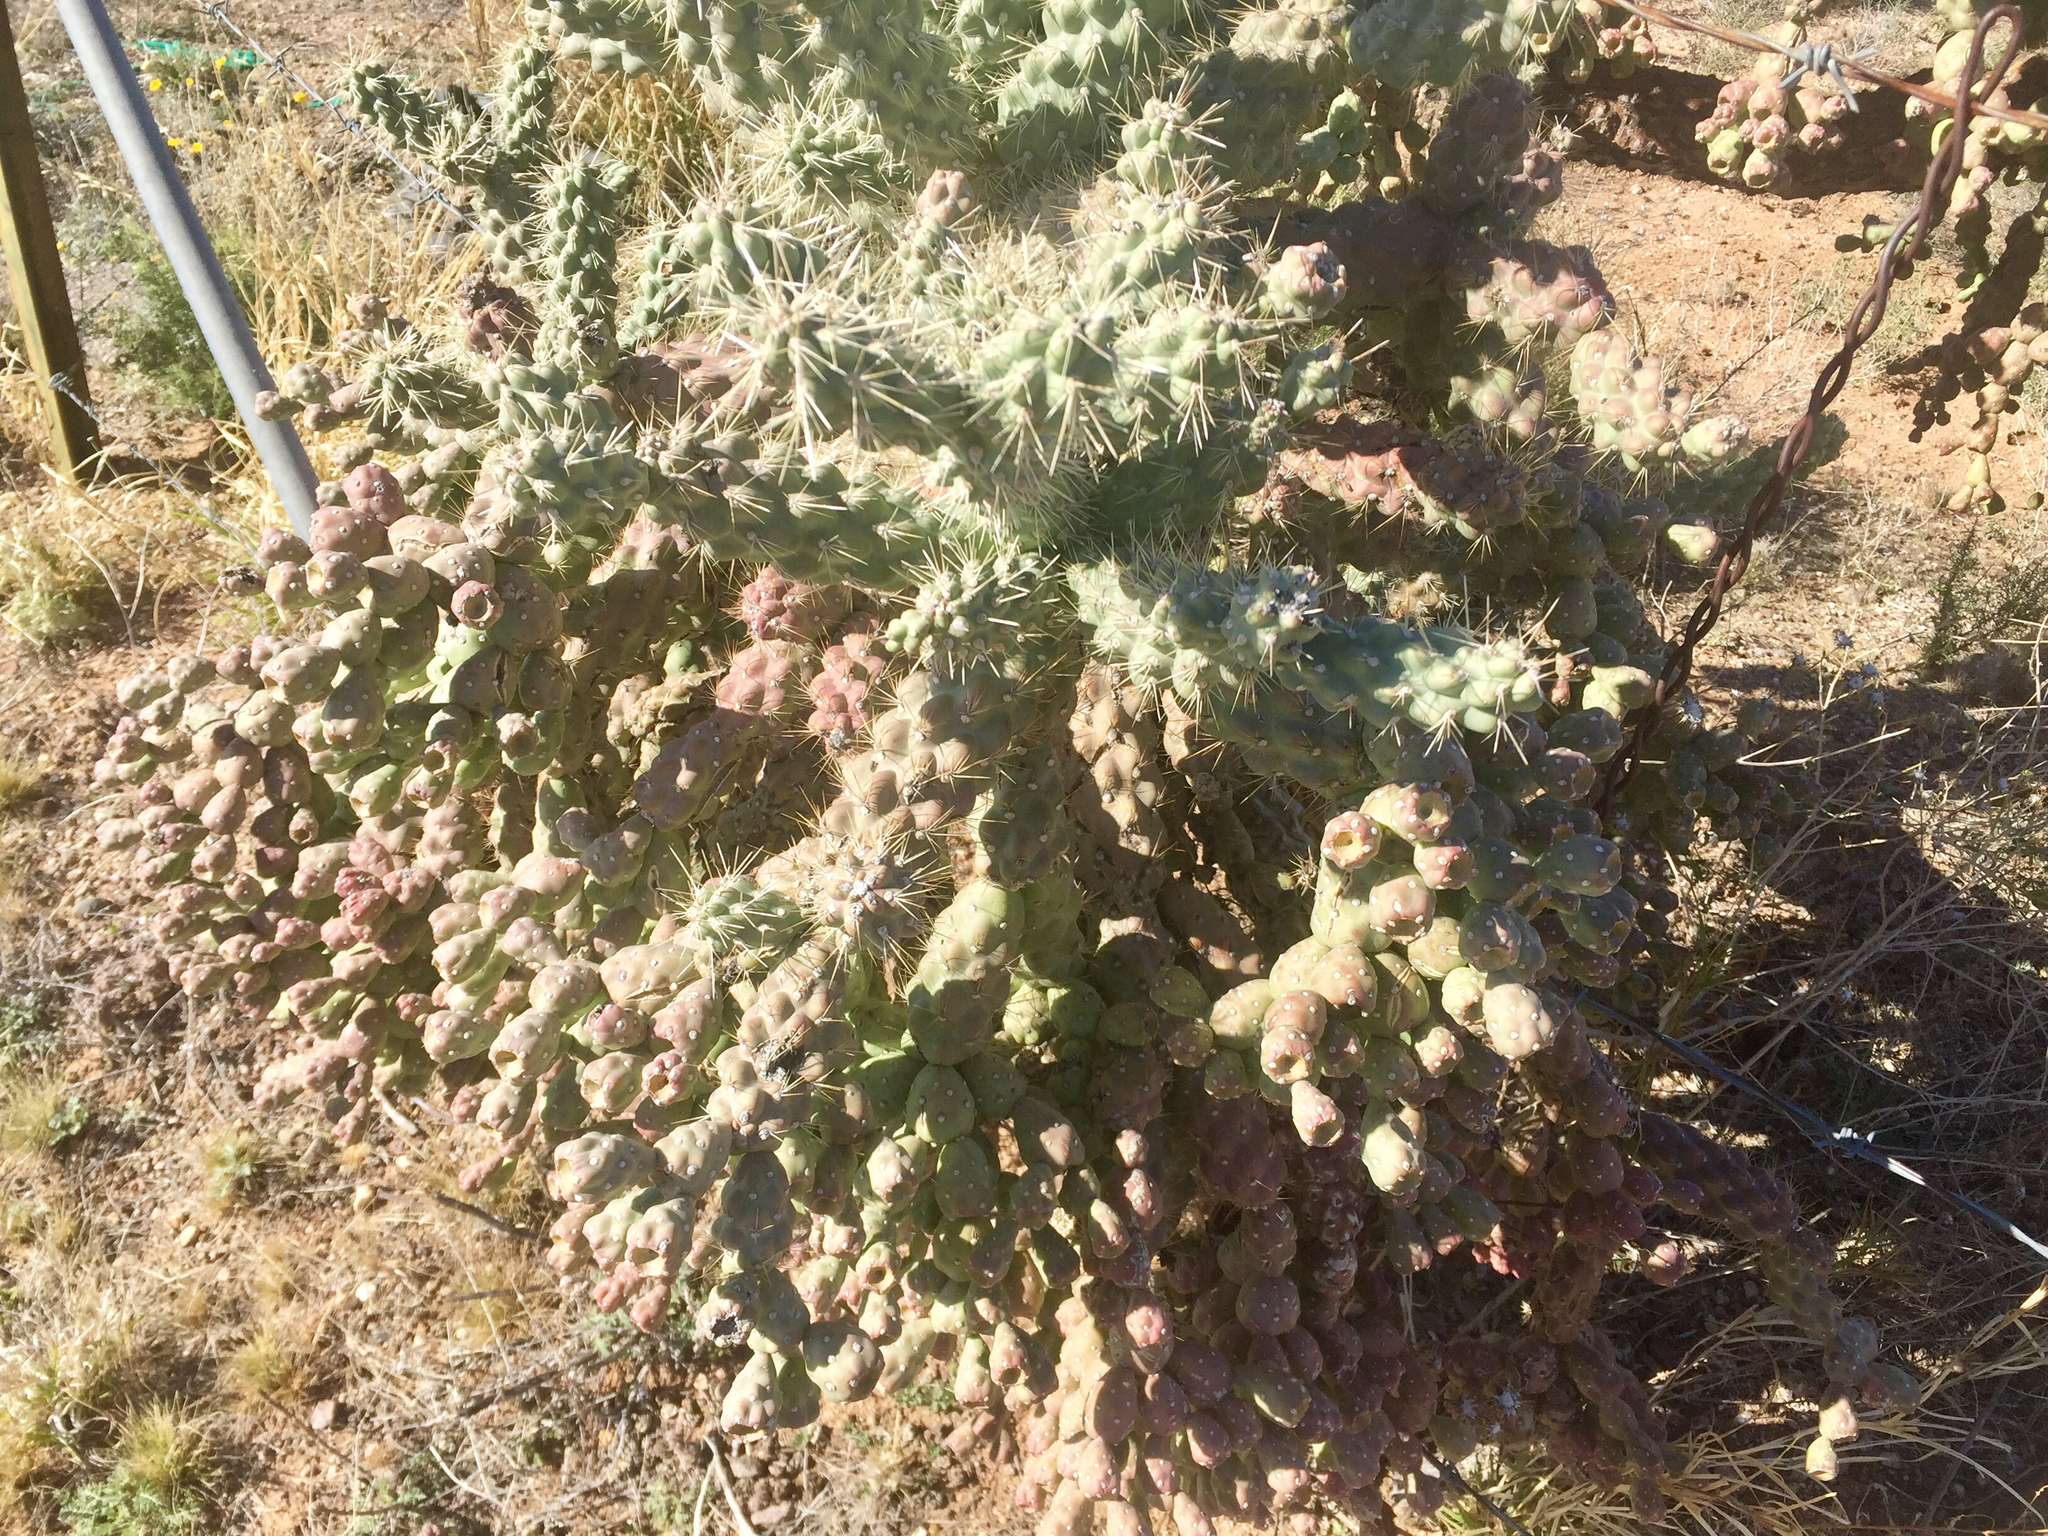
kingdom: Plantae
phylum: Tracheophyta
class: Magnoliopsida
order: Caryophyllales
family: Cactaceae
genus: Cylindropuntia
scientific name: Cylindropuntia fulgida
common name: Jumping cholla
